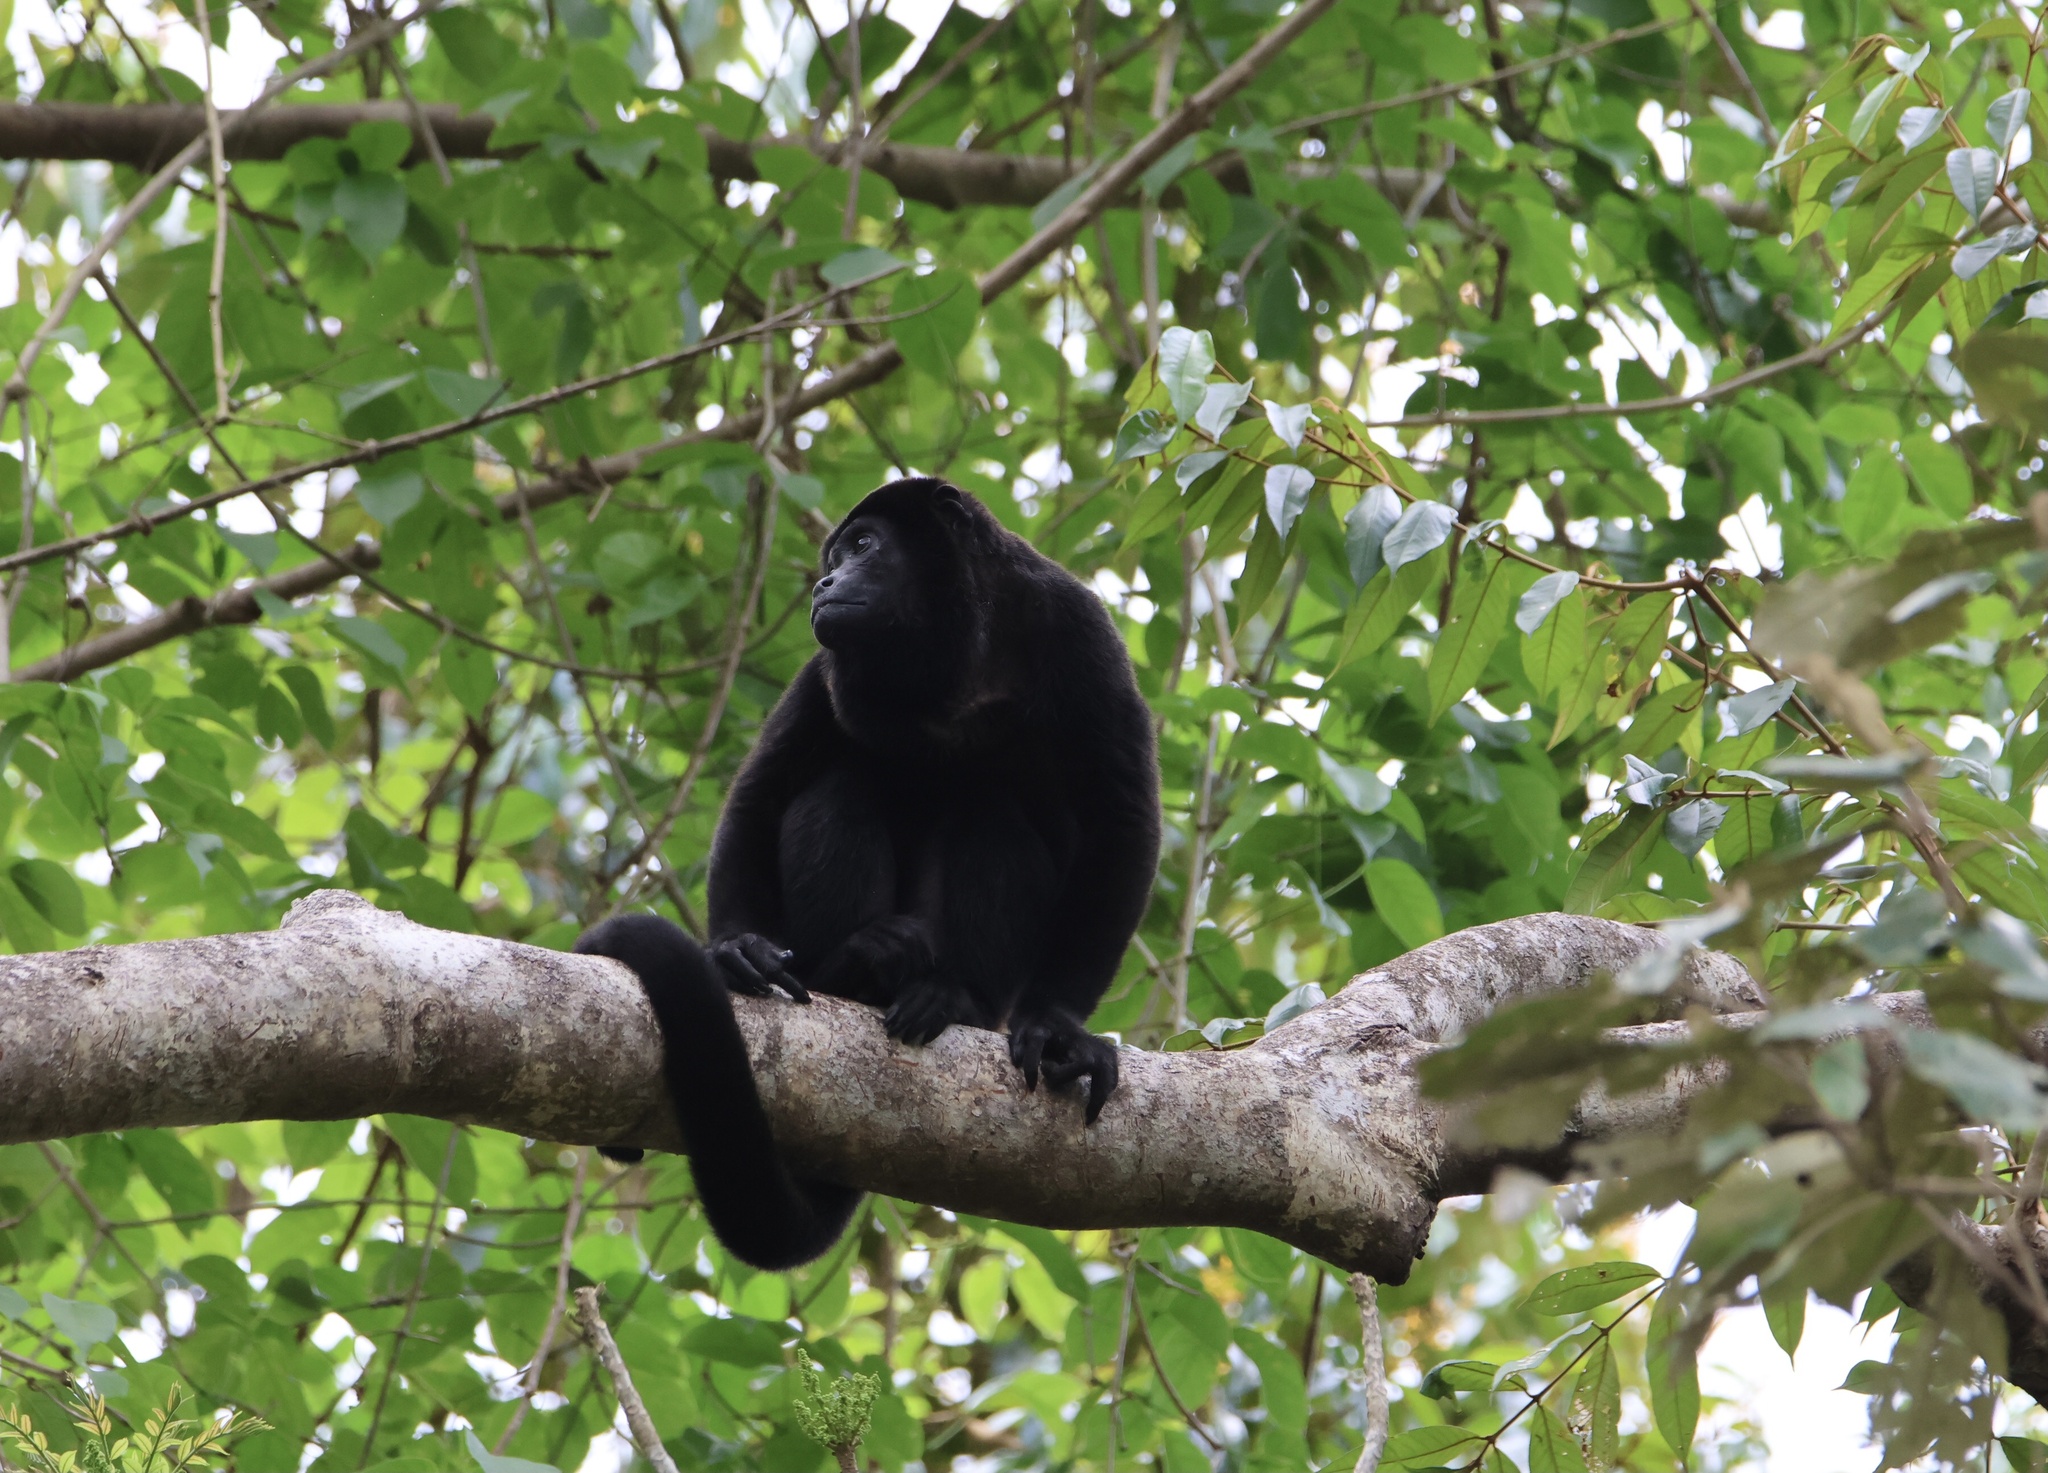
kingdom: Animalia
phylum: Chordata
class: Mammalia
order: Primates
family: Atelidae
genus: Alouatta
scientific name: Alouatta palliata
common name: Mantled howler
